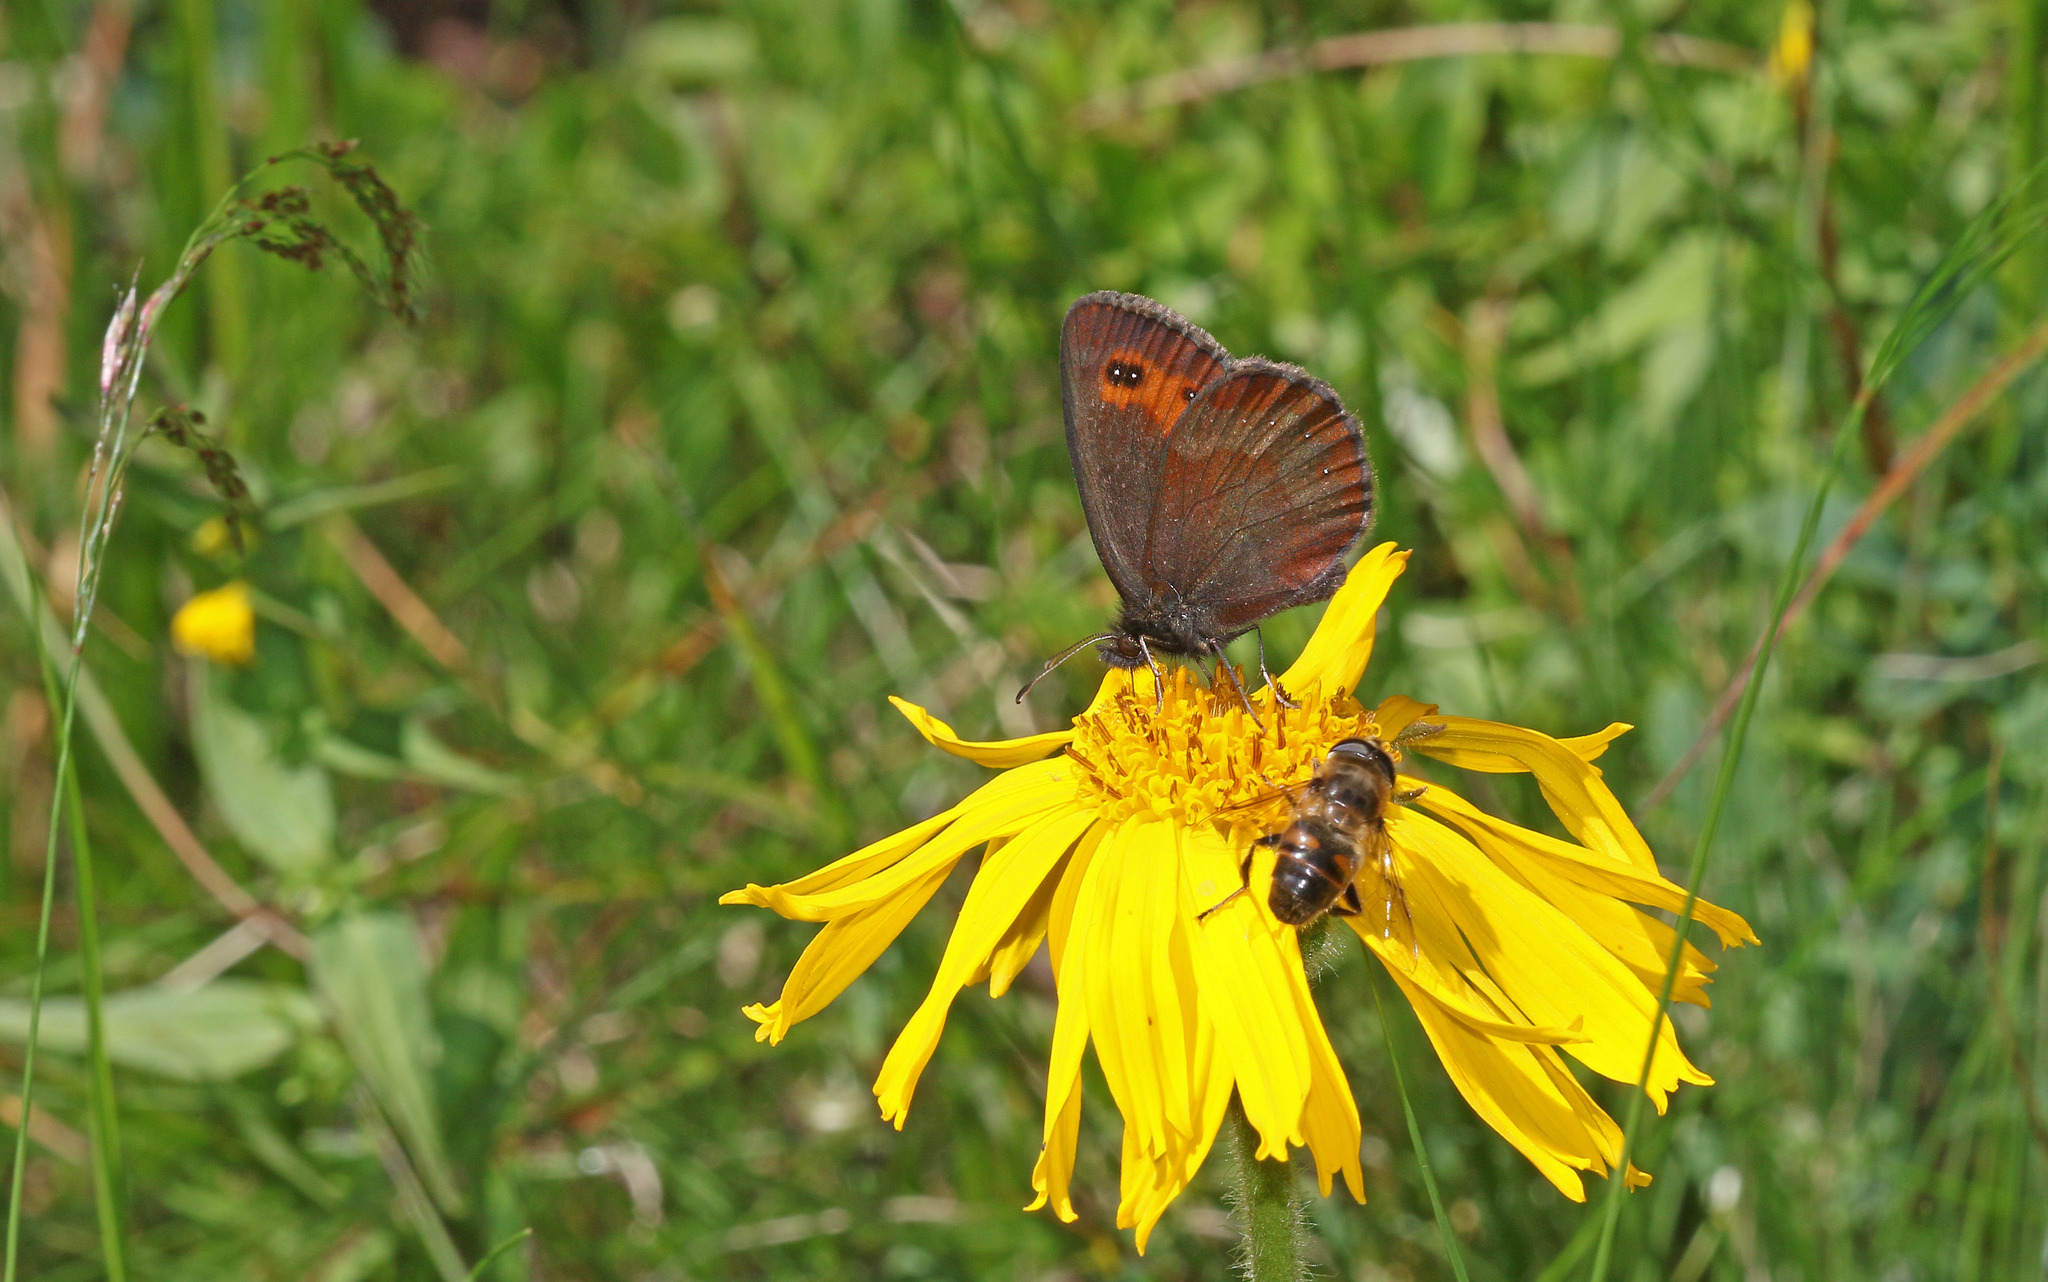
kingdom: Animalia
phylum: Arthropoda
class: Insecta
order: Lepidoptera
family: Nymphalidae
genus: Erebia
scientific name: Erebia aethiops
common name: Scotch argus
